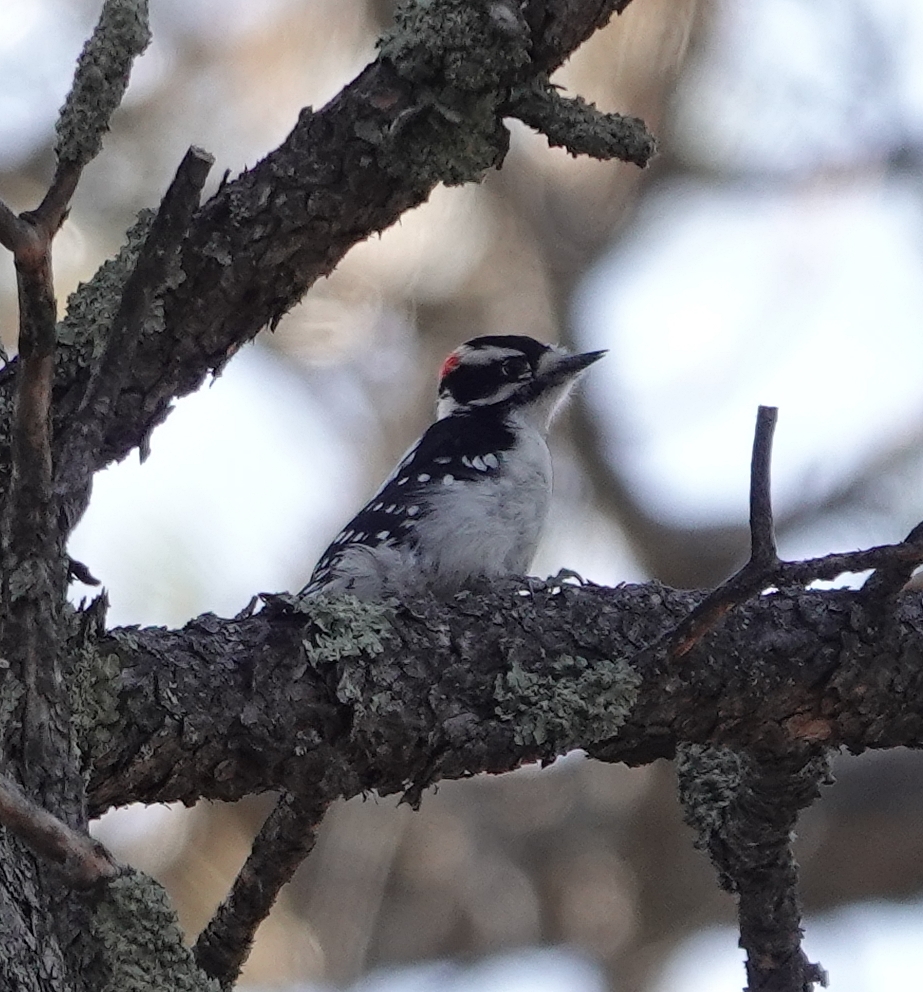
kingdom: Animalia
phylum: Chordata
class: Aves
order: Piciformes
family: Picidae
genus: Dryobates
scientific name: Dryobates pubescens
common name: Downy woodpecker
